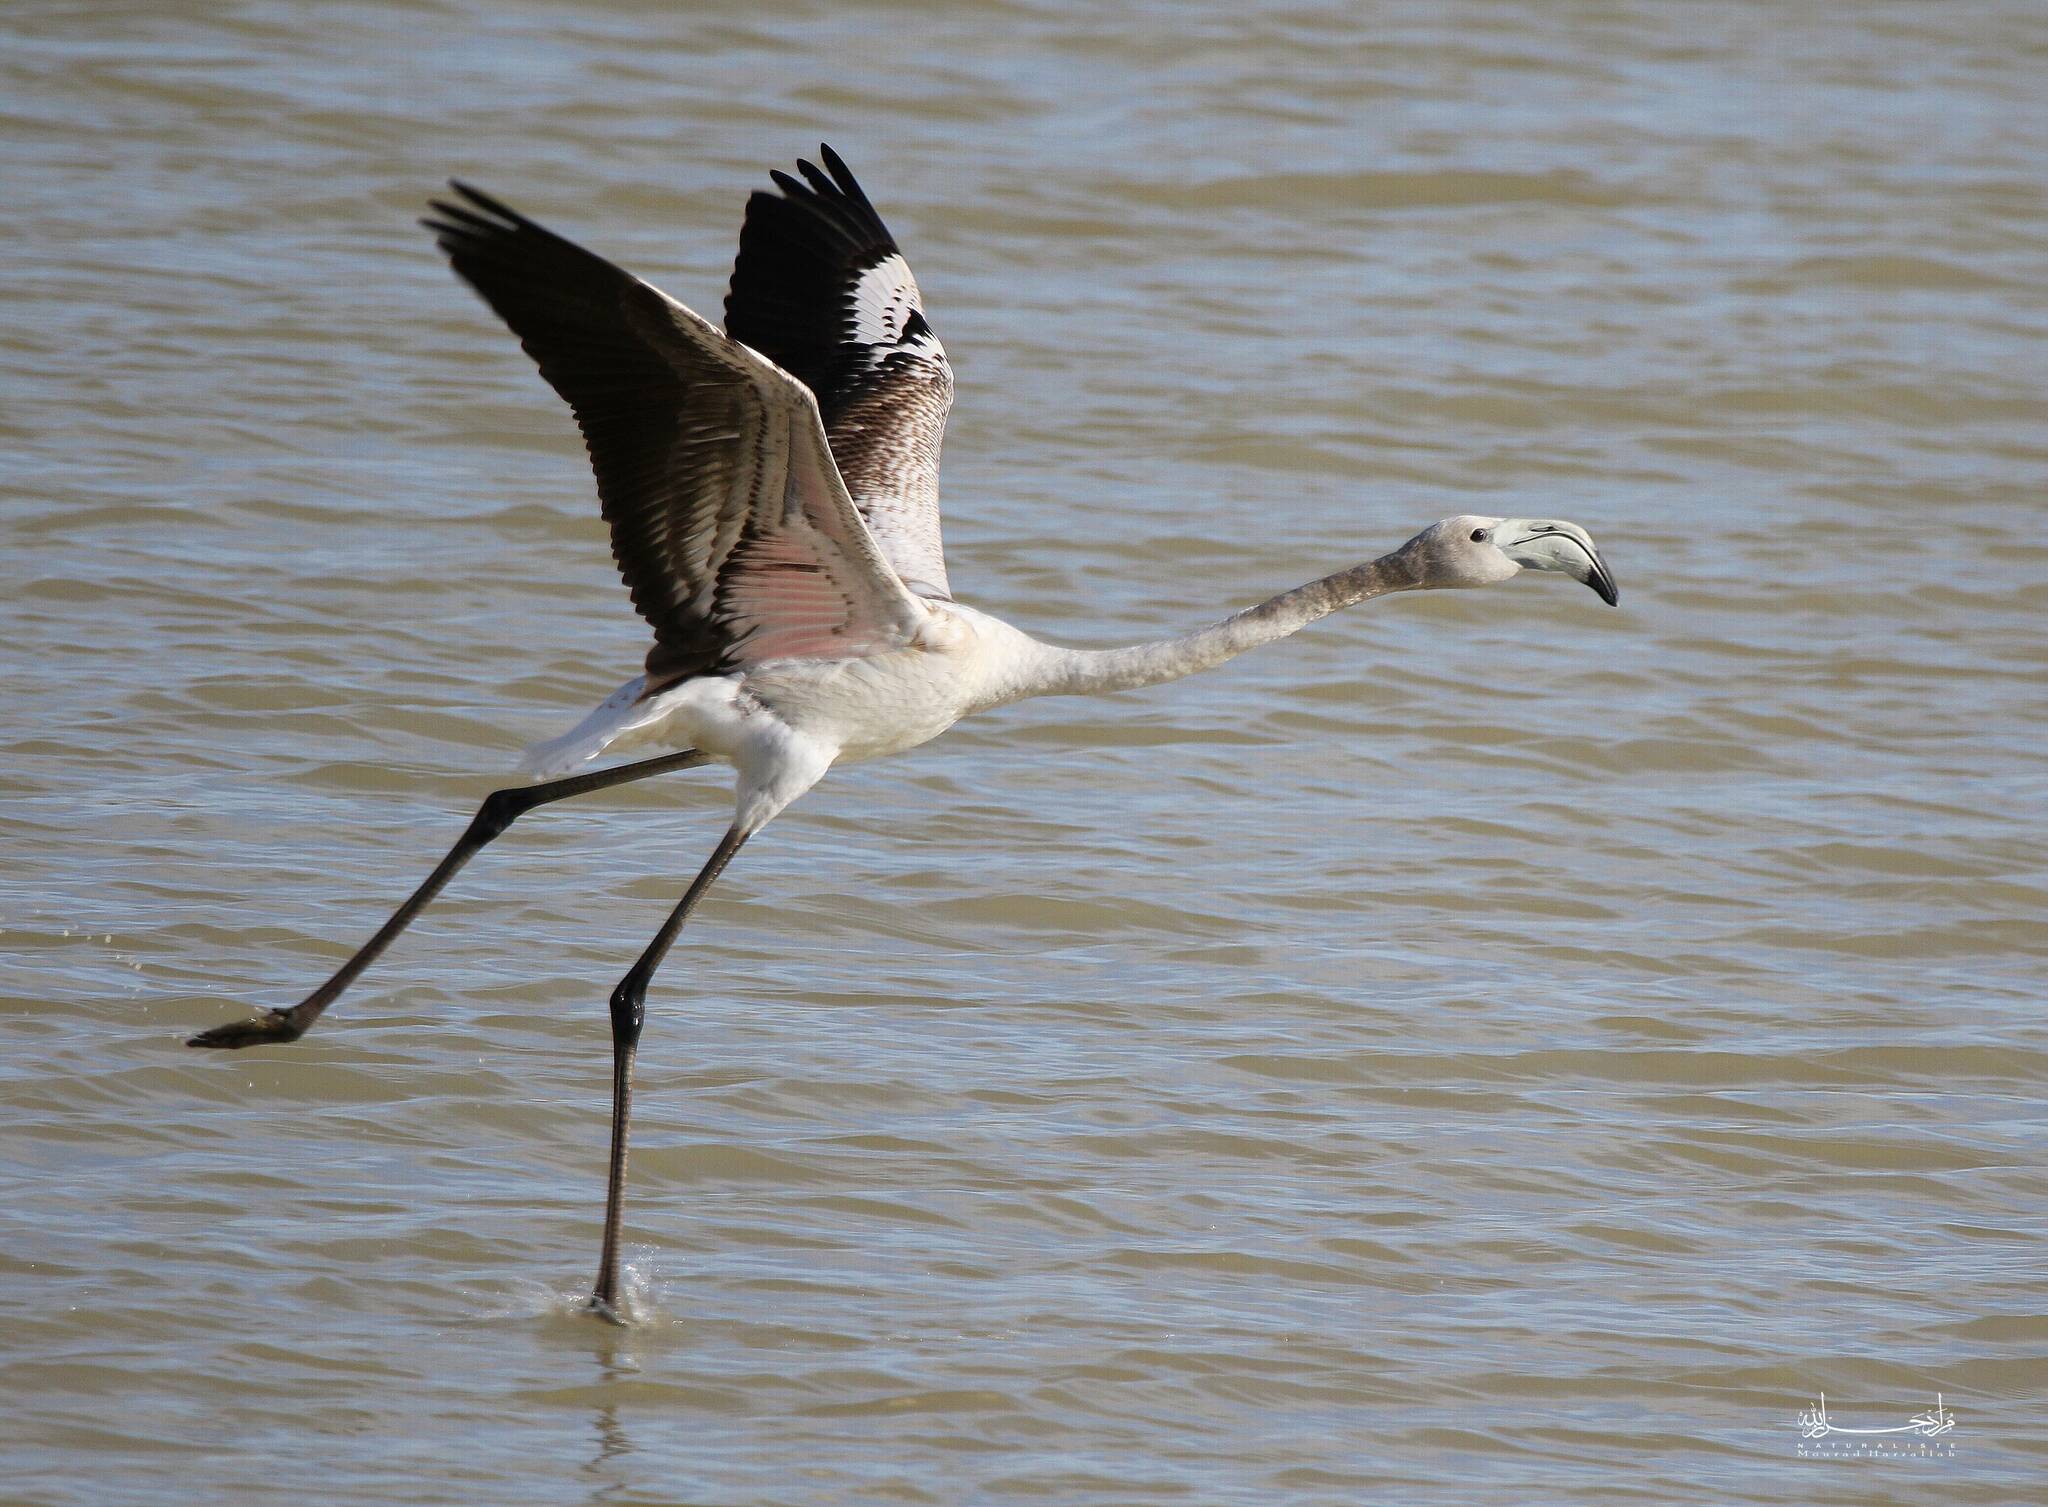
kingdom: Animalia
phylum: Chordata
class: Aves
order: Phoenicopteriformes
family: Phoenicopteridae
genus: Phoenicopterus
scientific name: Phoenicopterus roseus
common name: Greater flamingo
